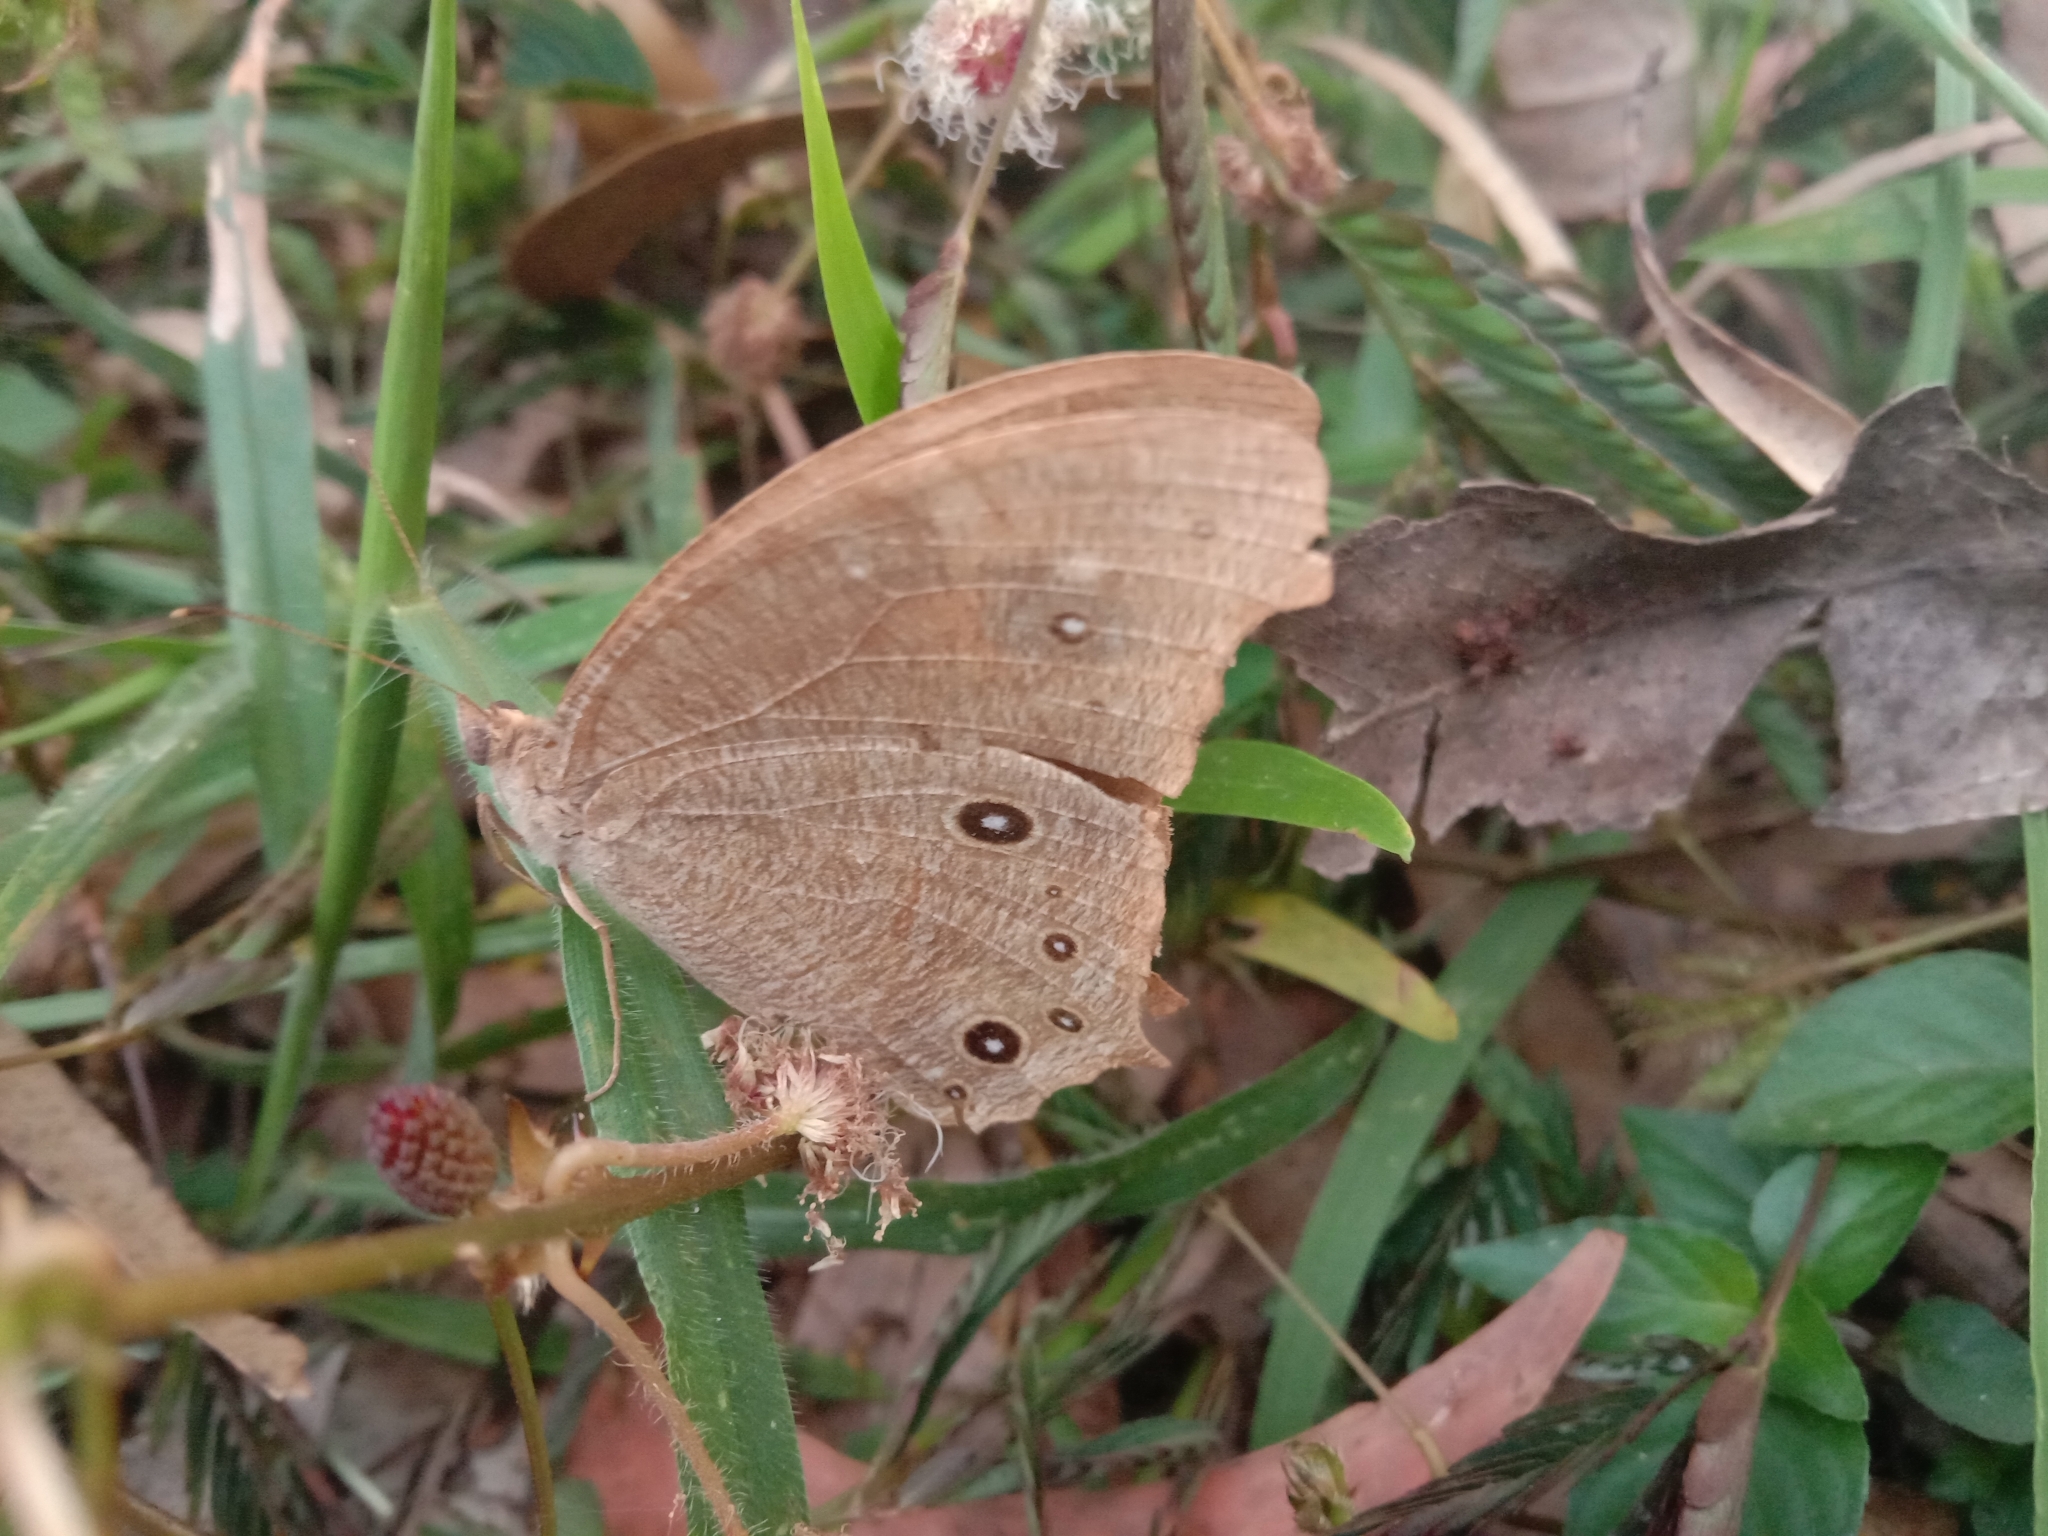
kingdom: Animalia
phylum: Arthropoda
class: Insecta
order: Lepidoptera
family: Nymphalidae
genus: Melanitis
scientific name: Melanitis leda
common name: Twilight brown
